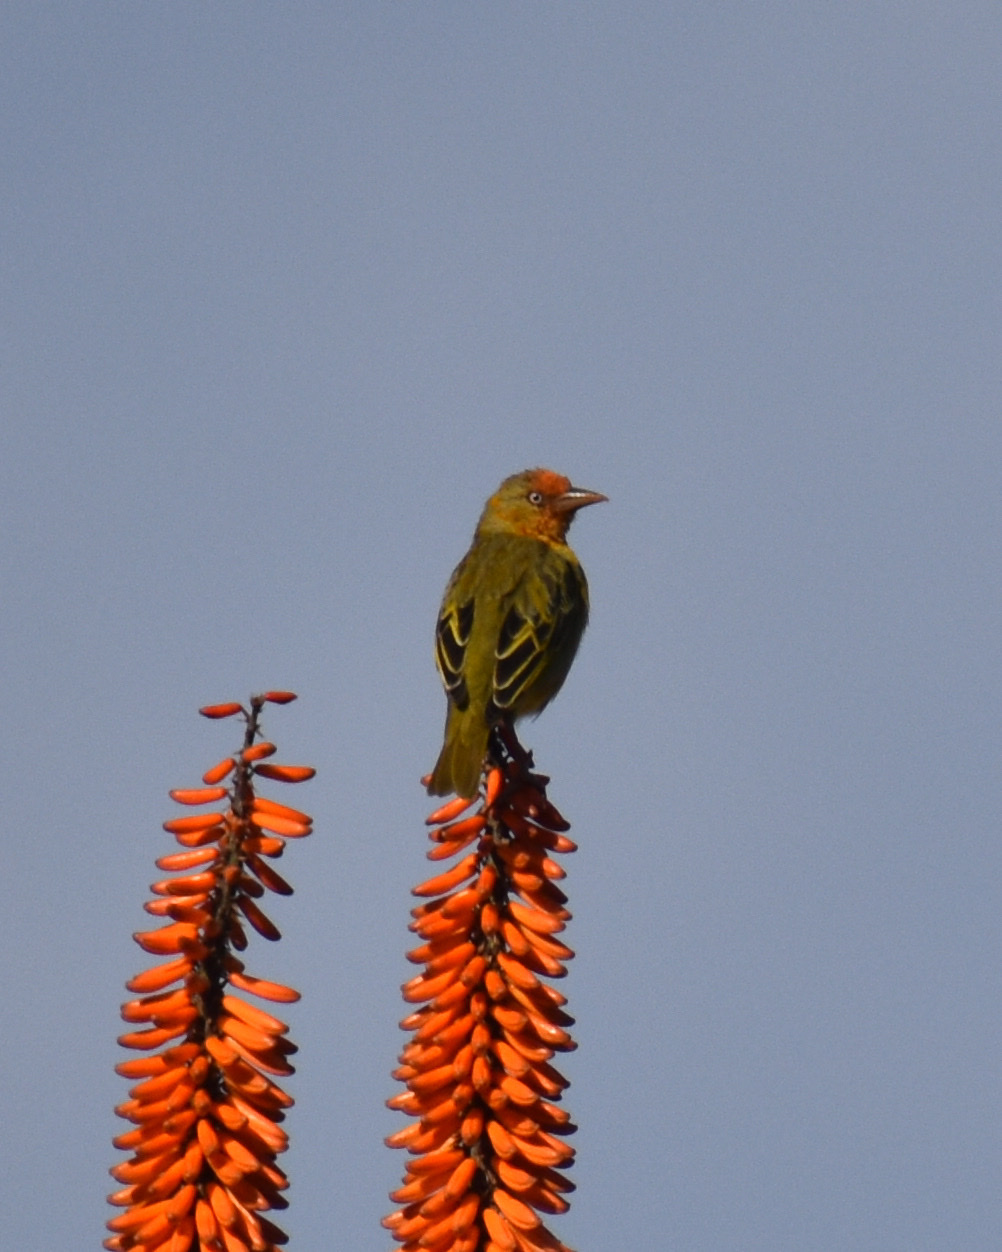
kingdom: Animalia
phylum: Chordata
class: Aves
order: Passeriformes
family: Ploceidae
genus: Ploceus
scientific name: Ploceus capensis
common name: Cape weaver
